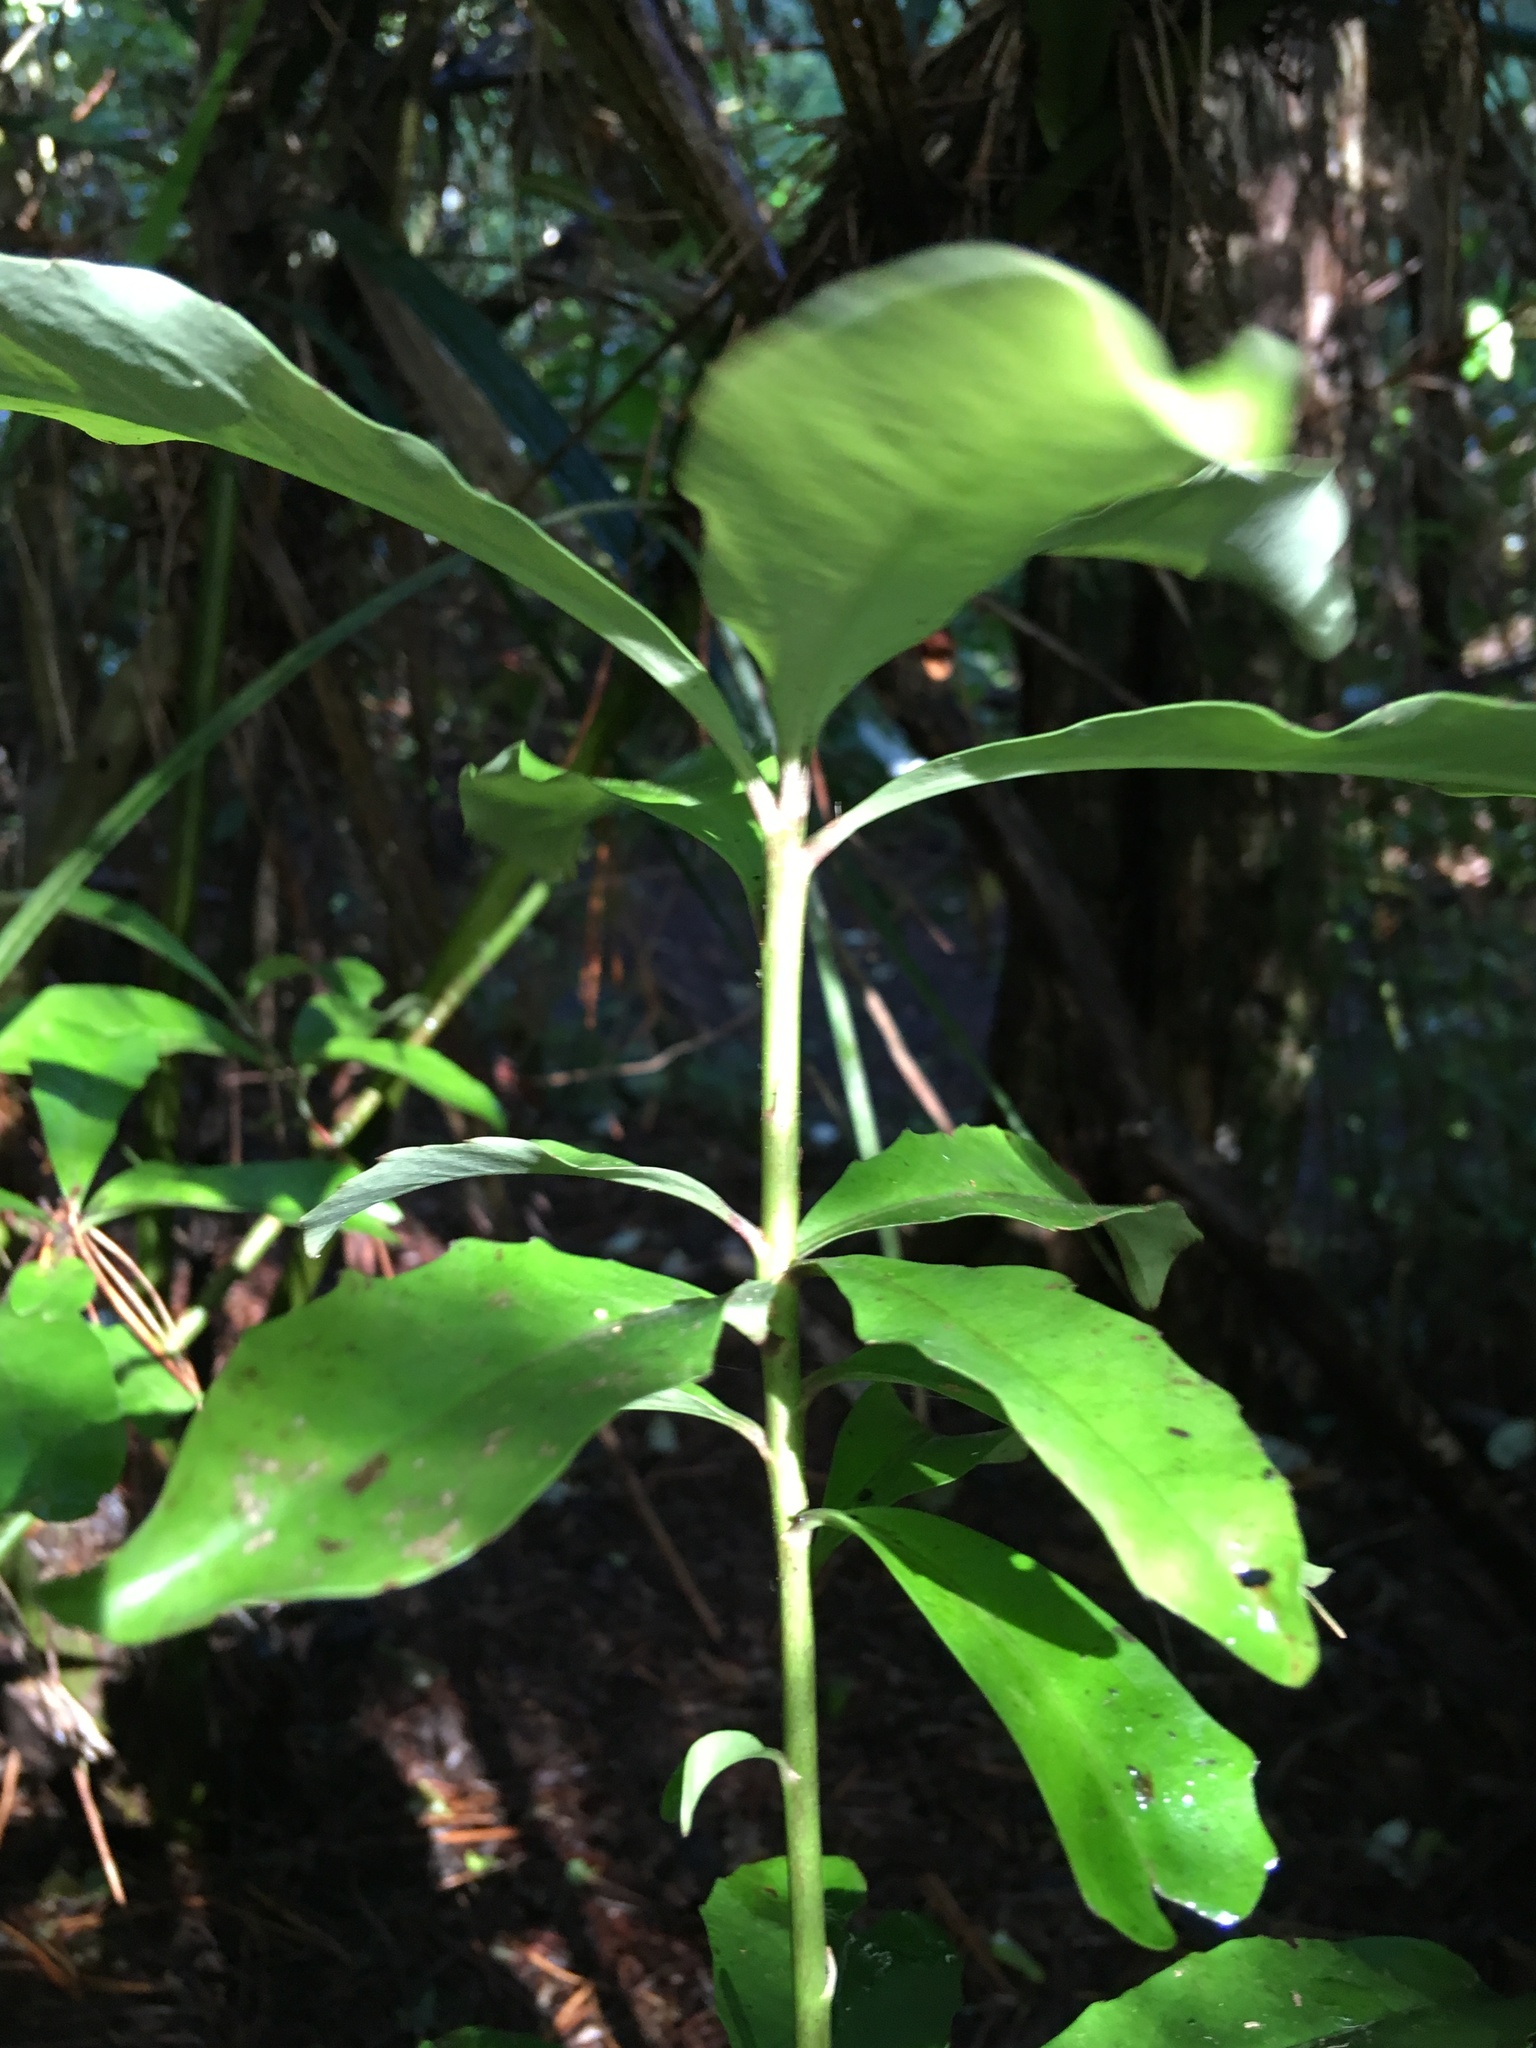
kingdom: Plantae
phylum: Tracheophyta
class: Magnoliopsida
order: Asterales
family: Alseuosmiaceae
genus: Alseuosmia
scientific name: Alseuosmia macrophylla
